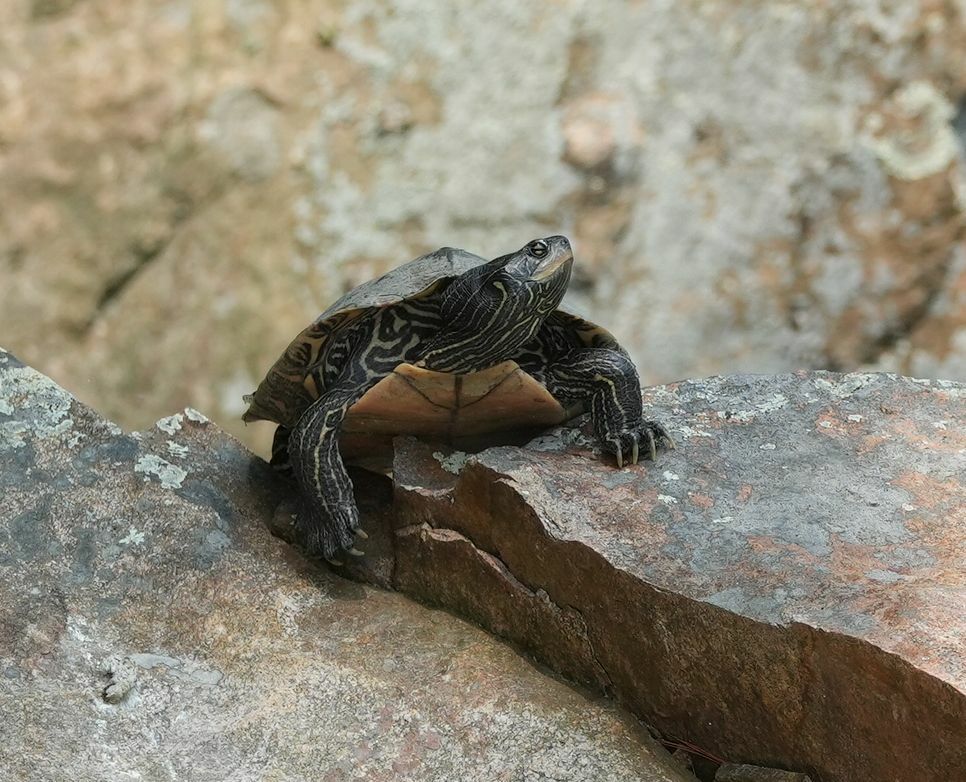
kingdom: Animalia
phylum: Chordata
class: Testudines
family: Emydidae
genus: Graptemys
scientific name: Graptemys geographica
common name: Common map turtle
